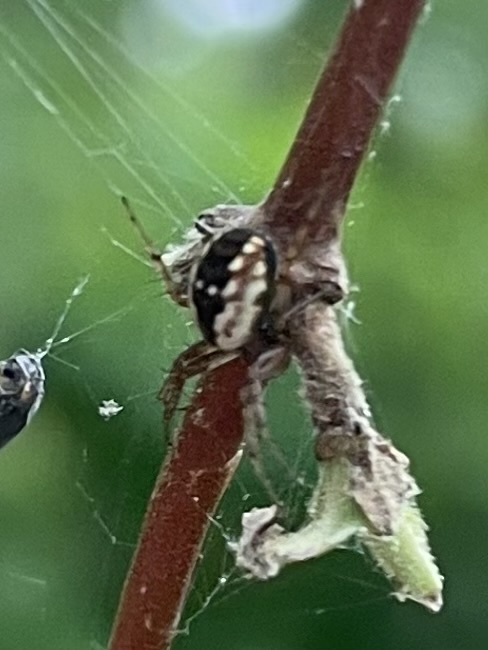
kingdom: Animalia
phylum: Arthropoda
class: Arachnida
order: Araneae
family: Araneidae
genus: Mangora
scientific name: Mangora placida
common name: Tuft-legged orbweaver
